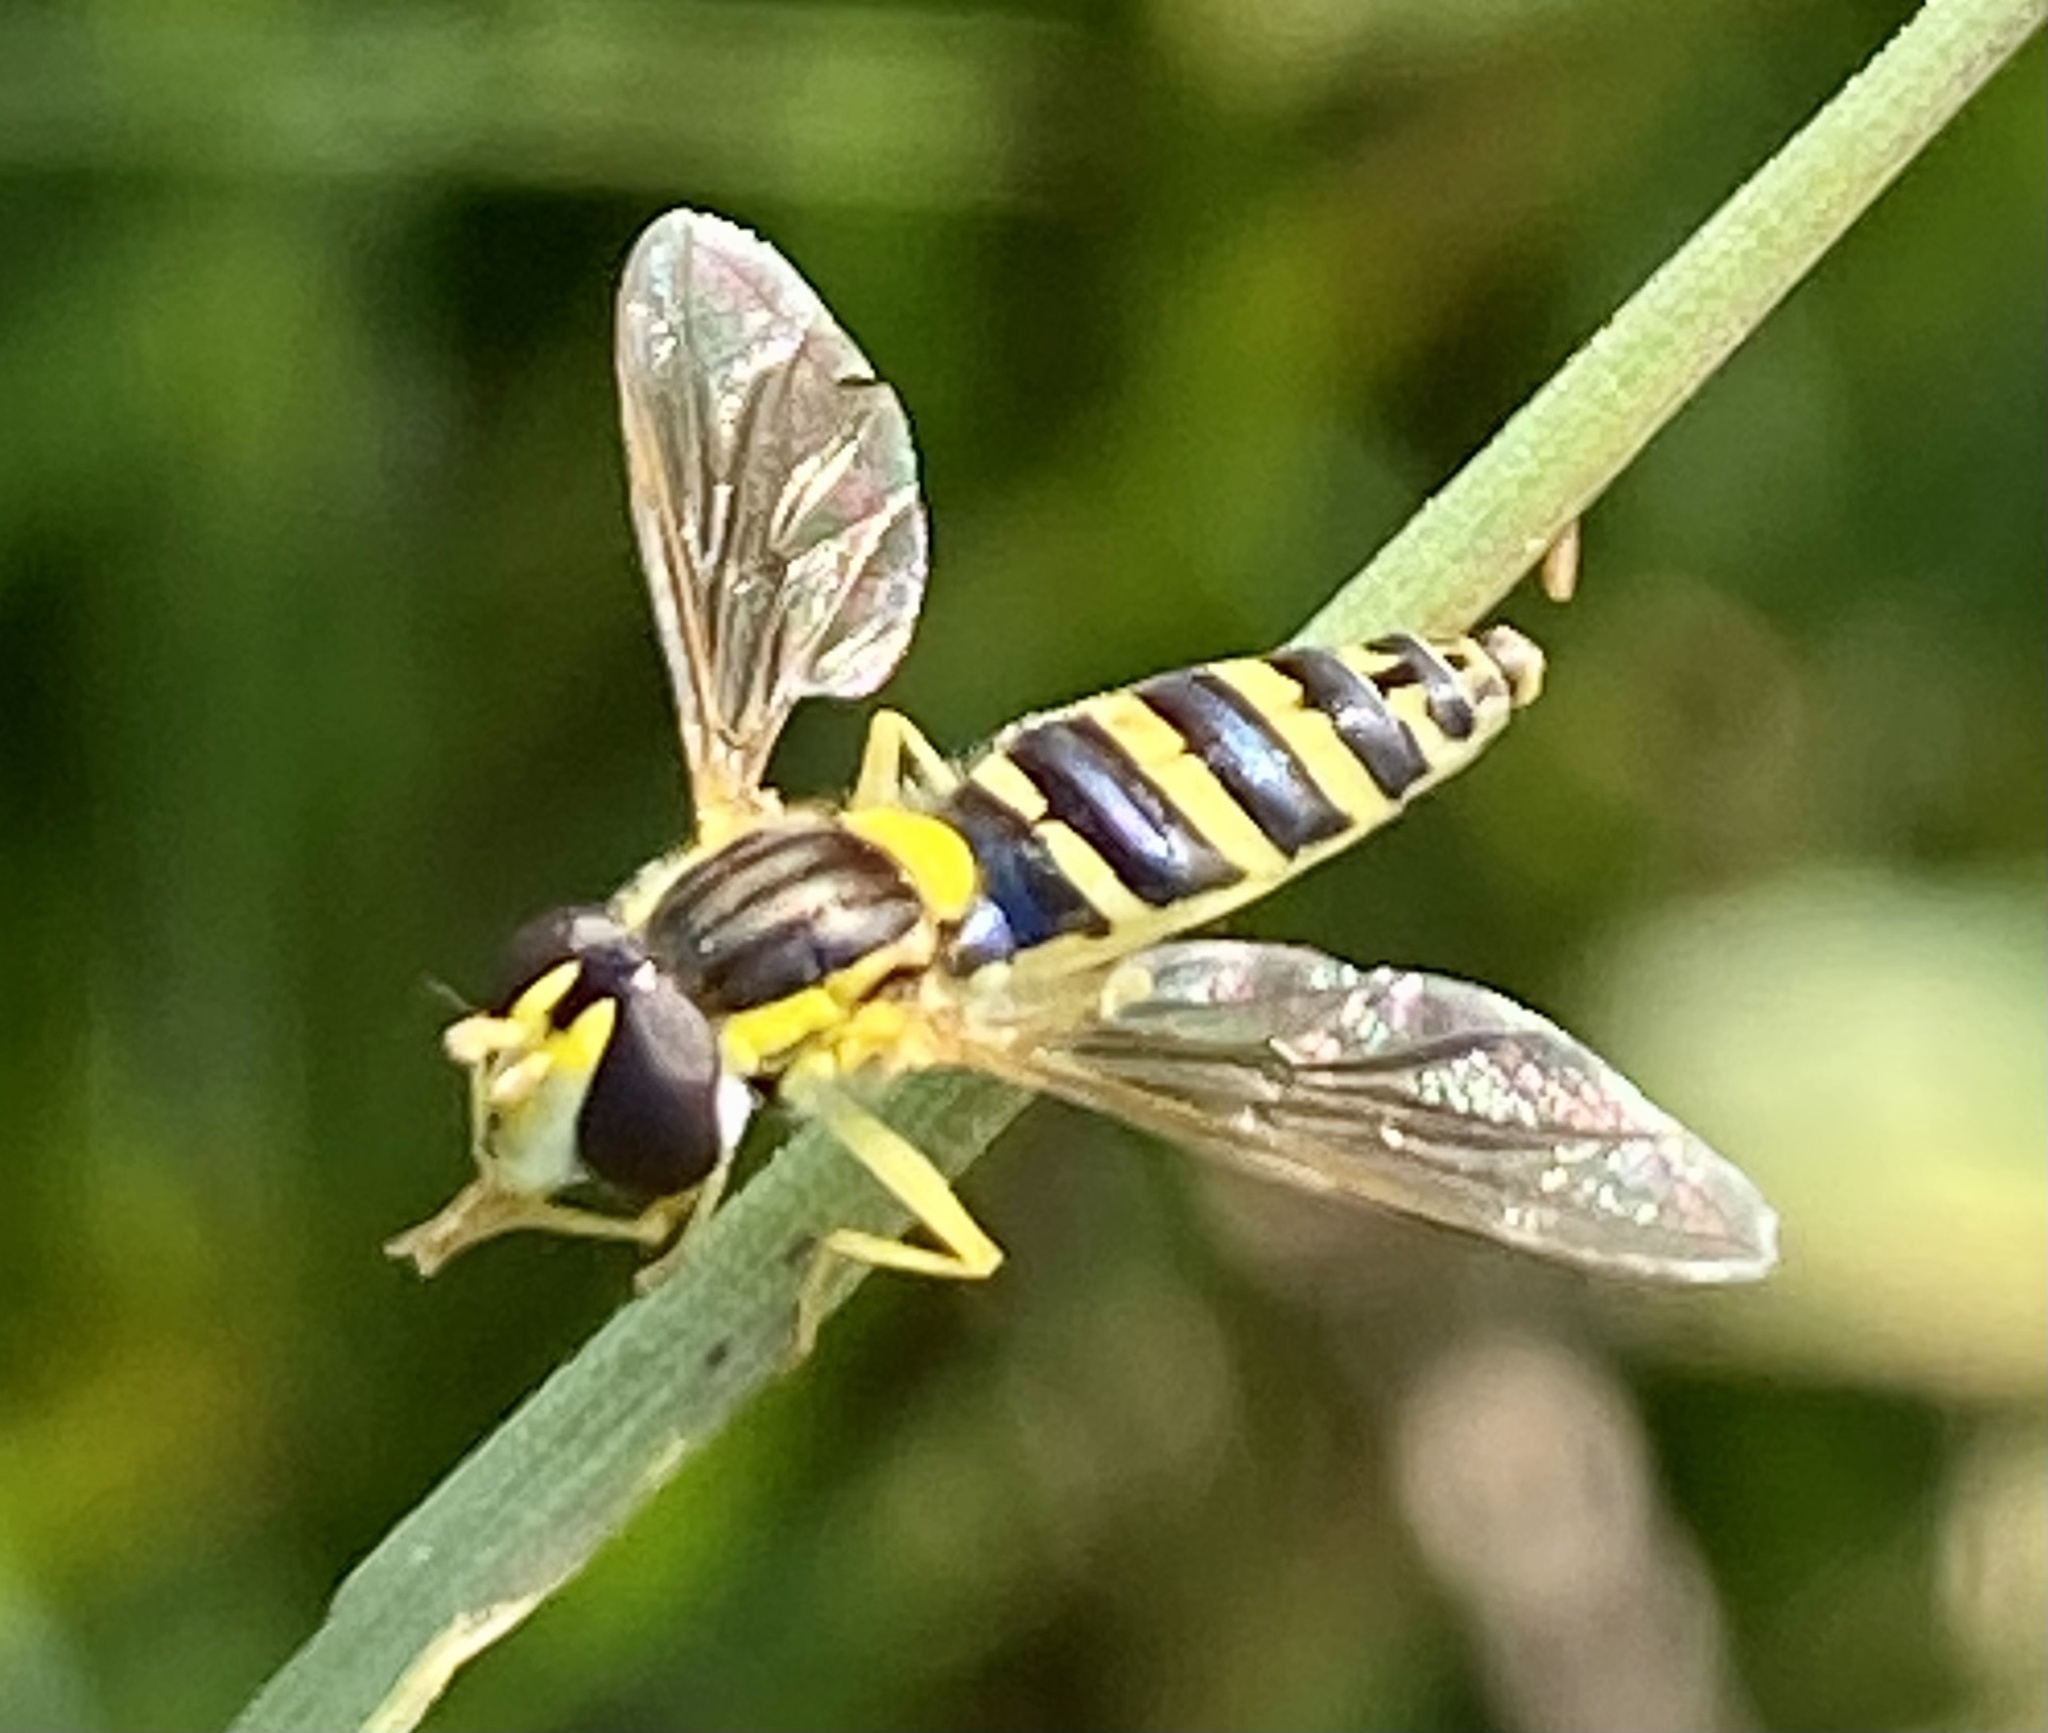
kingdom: Animalia
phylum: Arthropoda
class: Insecta
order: Diptera
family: Syrphidae
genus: Sphaerophoria
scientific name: Sphaerophoria
